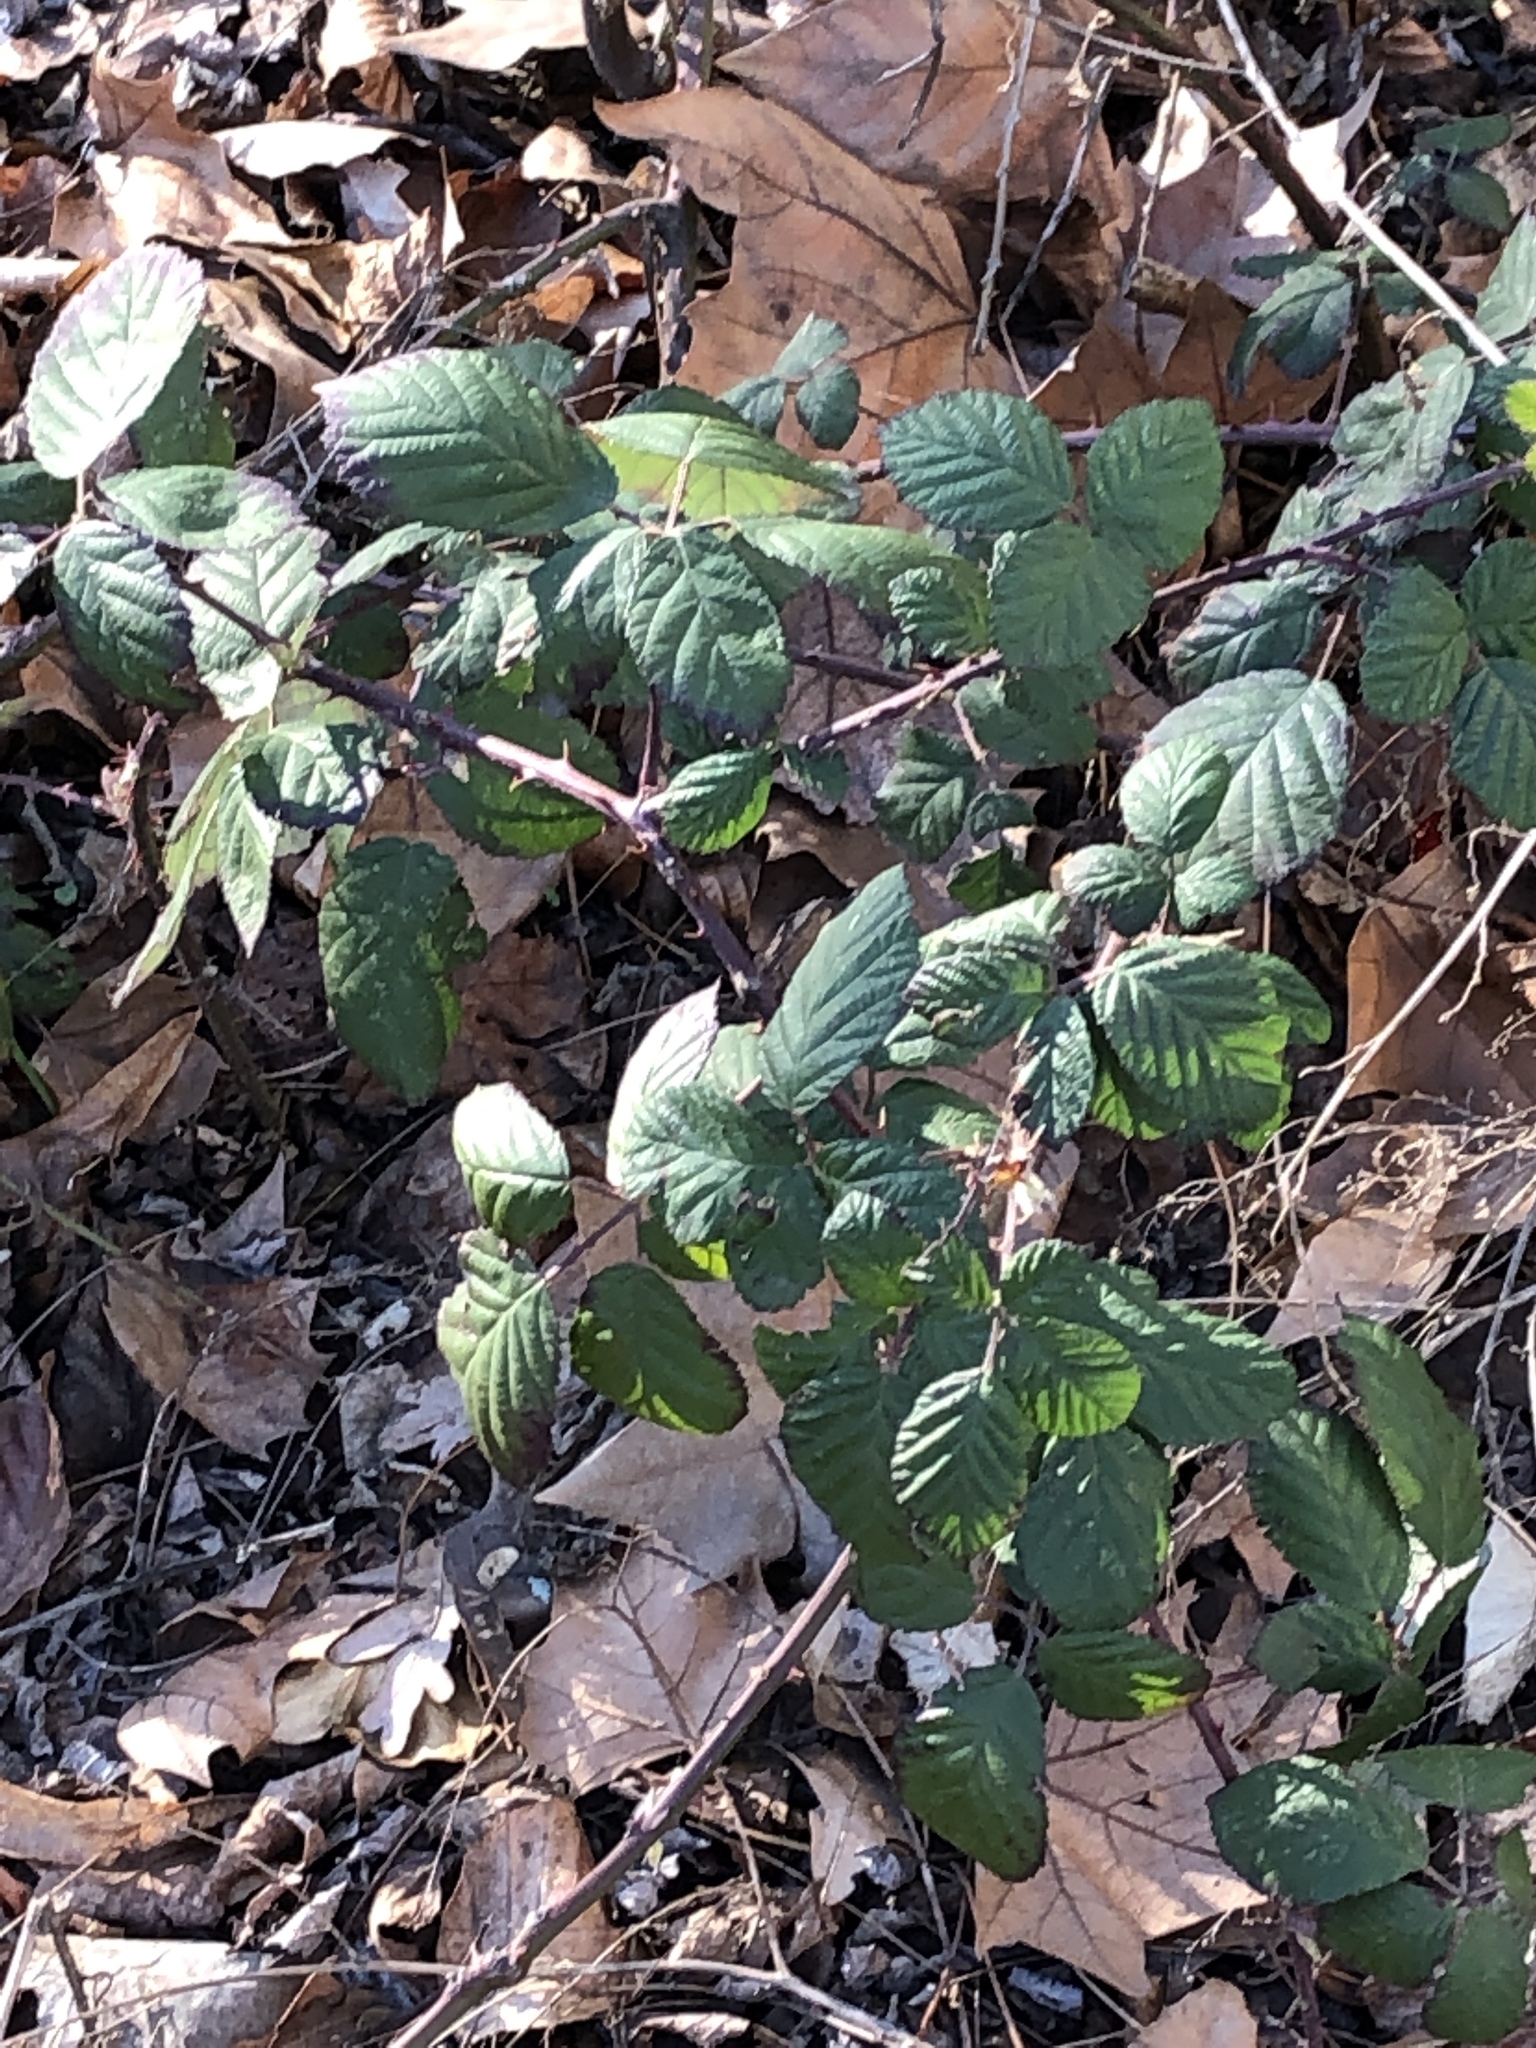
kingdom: Plantae
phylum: Tracheophyta
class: Magnoliopsida
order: Rosales
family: Rosaceae
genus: Rubus
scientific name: Rubus
